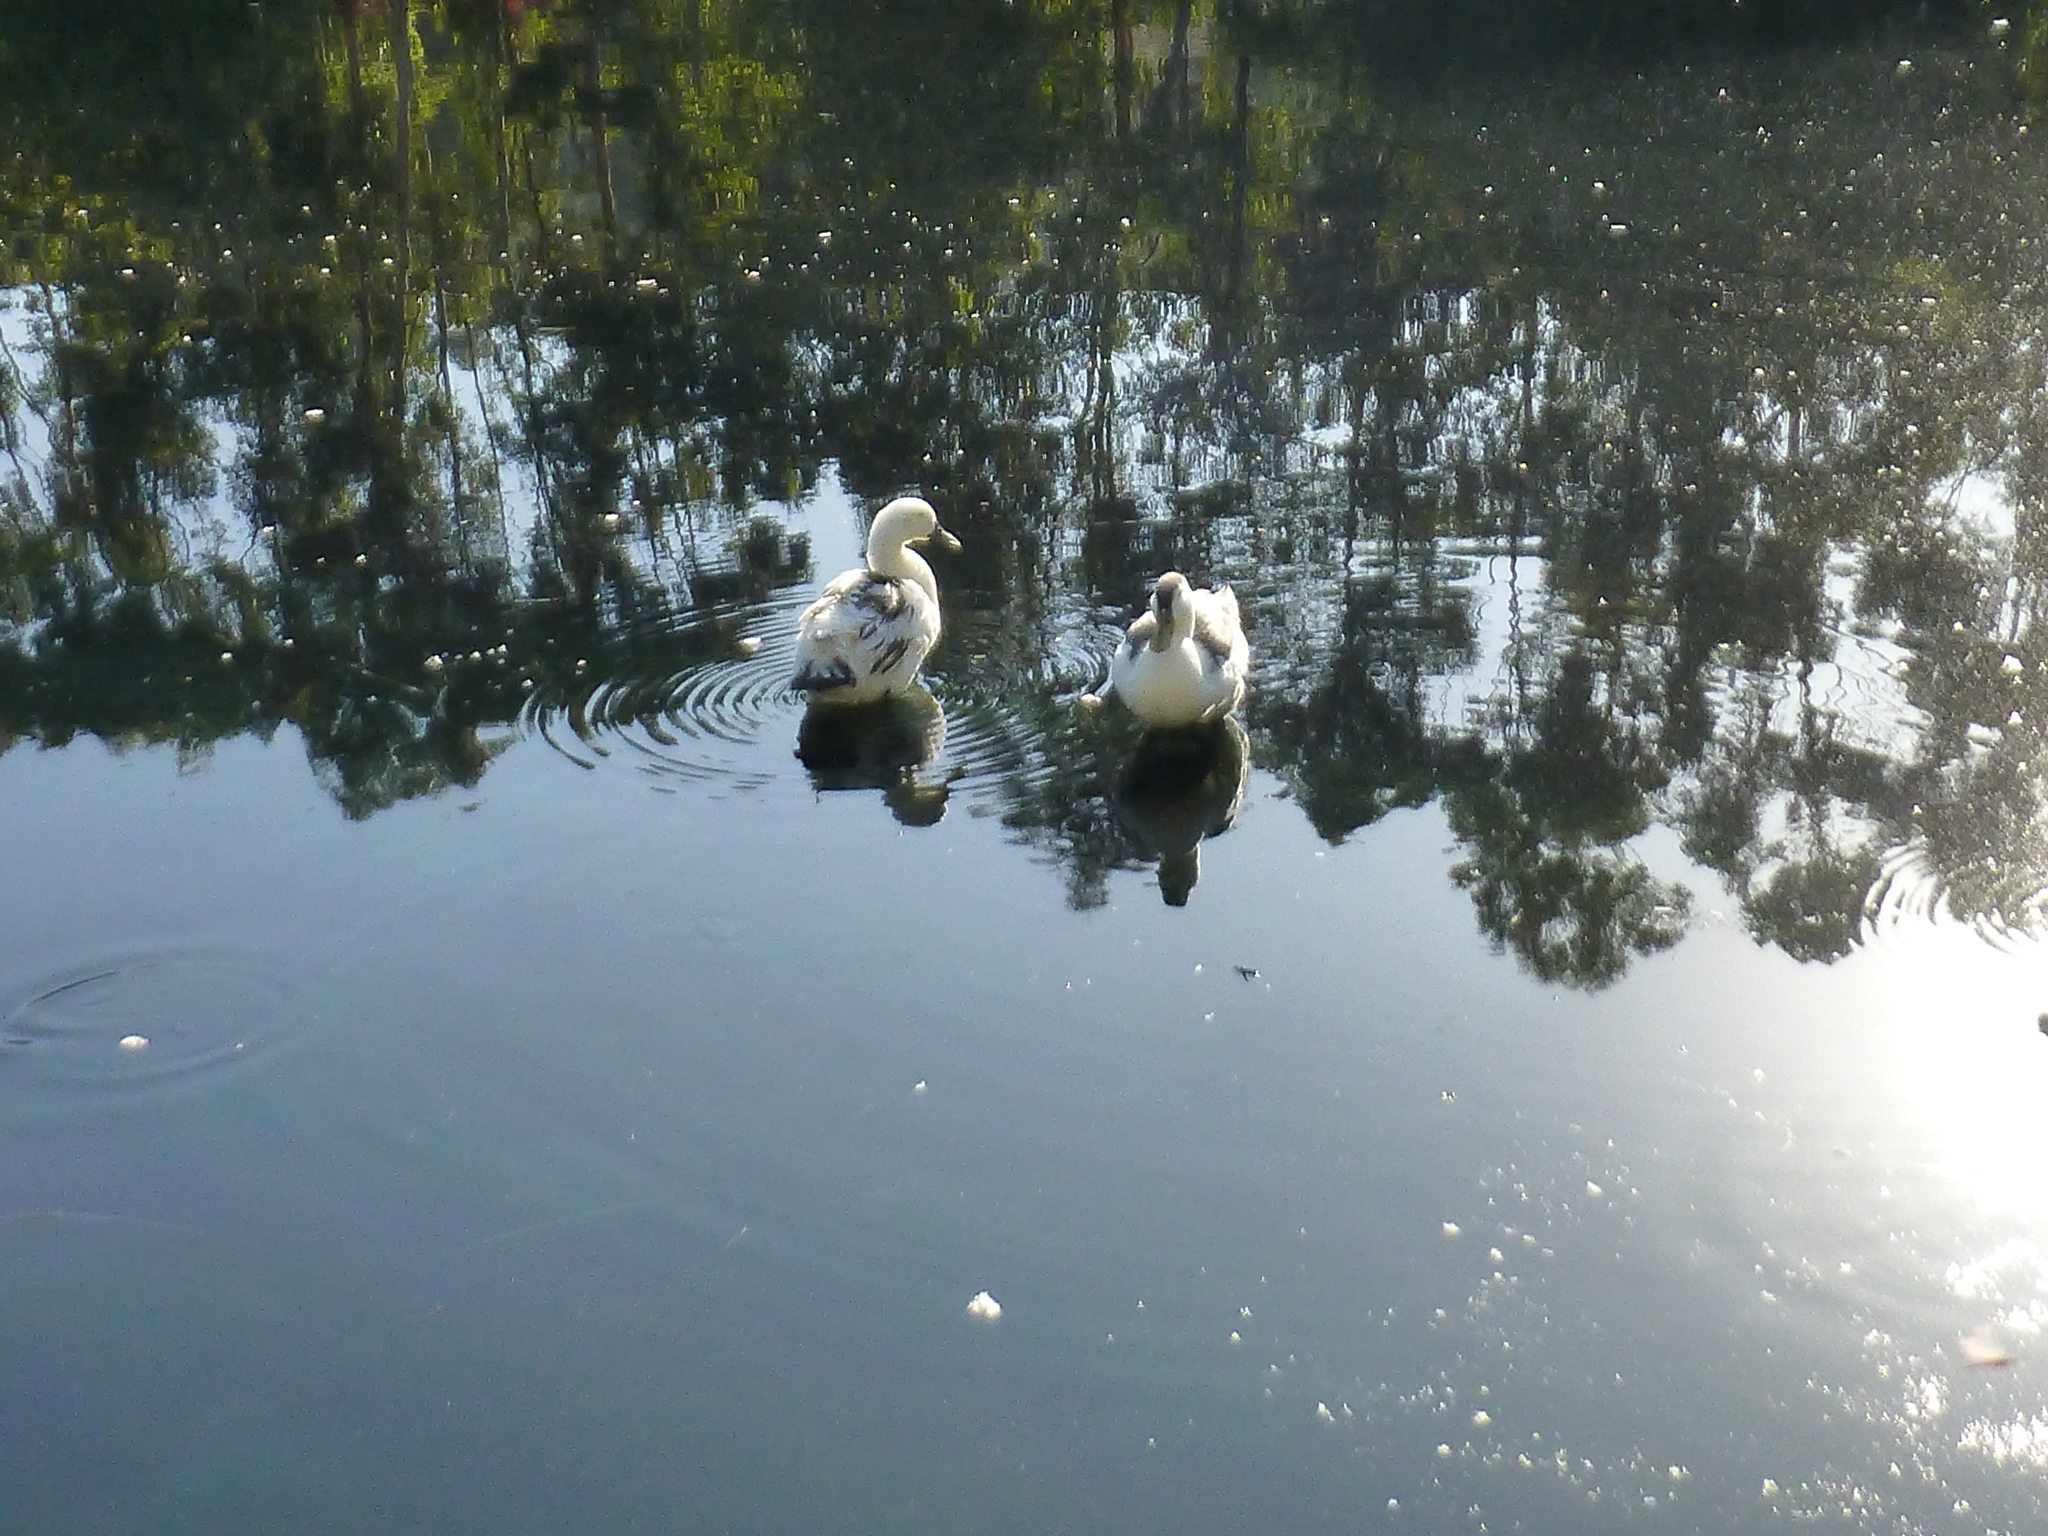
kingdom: Animalia
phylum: Chordata
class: Aves
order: Anseriformes
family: Anatidae
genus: Anas
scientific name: Anas platyrhynchos
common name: Mallard
